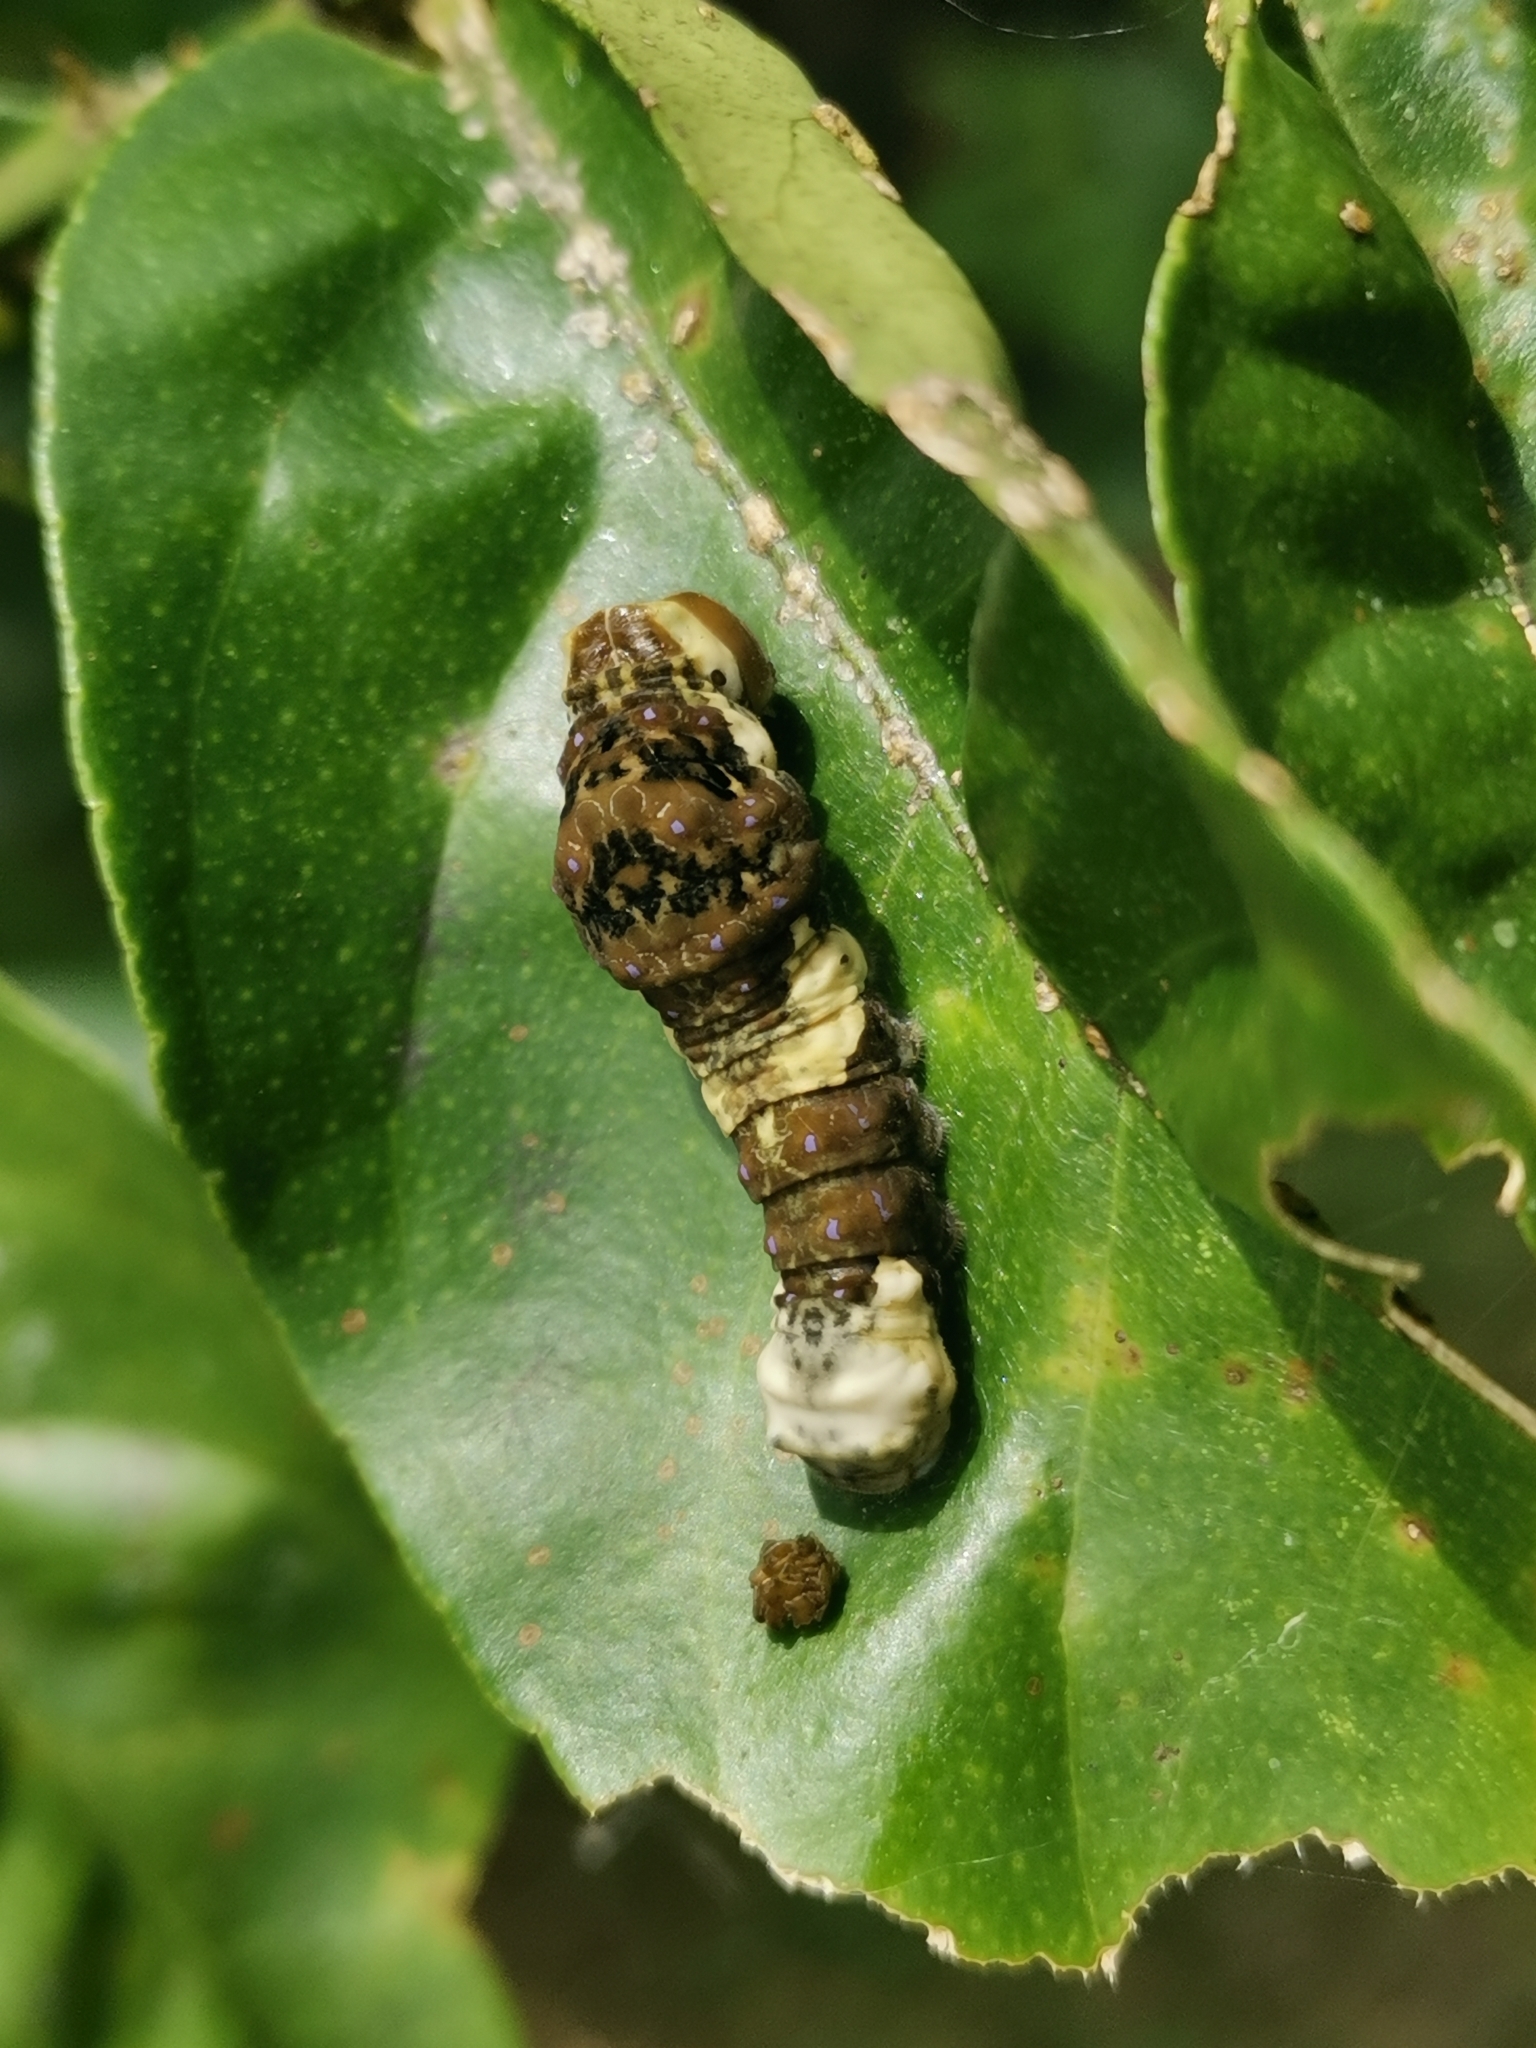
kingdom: Animalia
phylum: Arthropoda
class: Insecta
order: Lepidoptera
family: Papilionidae
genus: Papilio
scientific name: Papilio rumiko
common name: Western giant swallowtail
